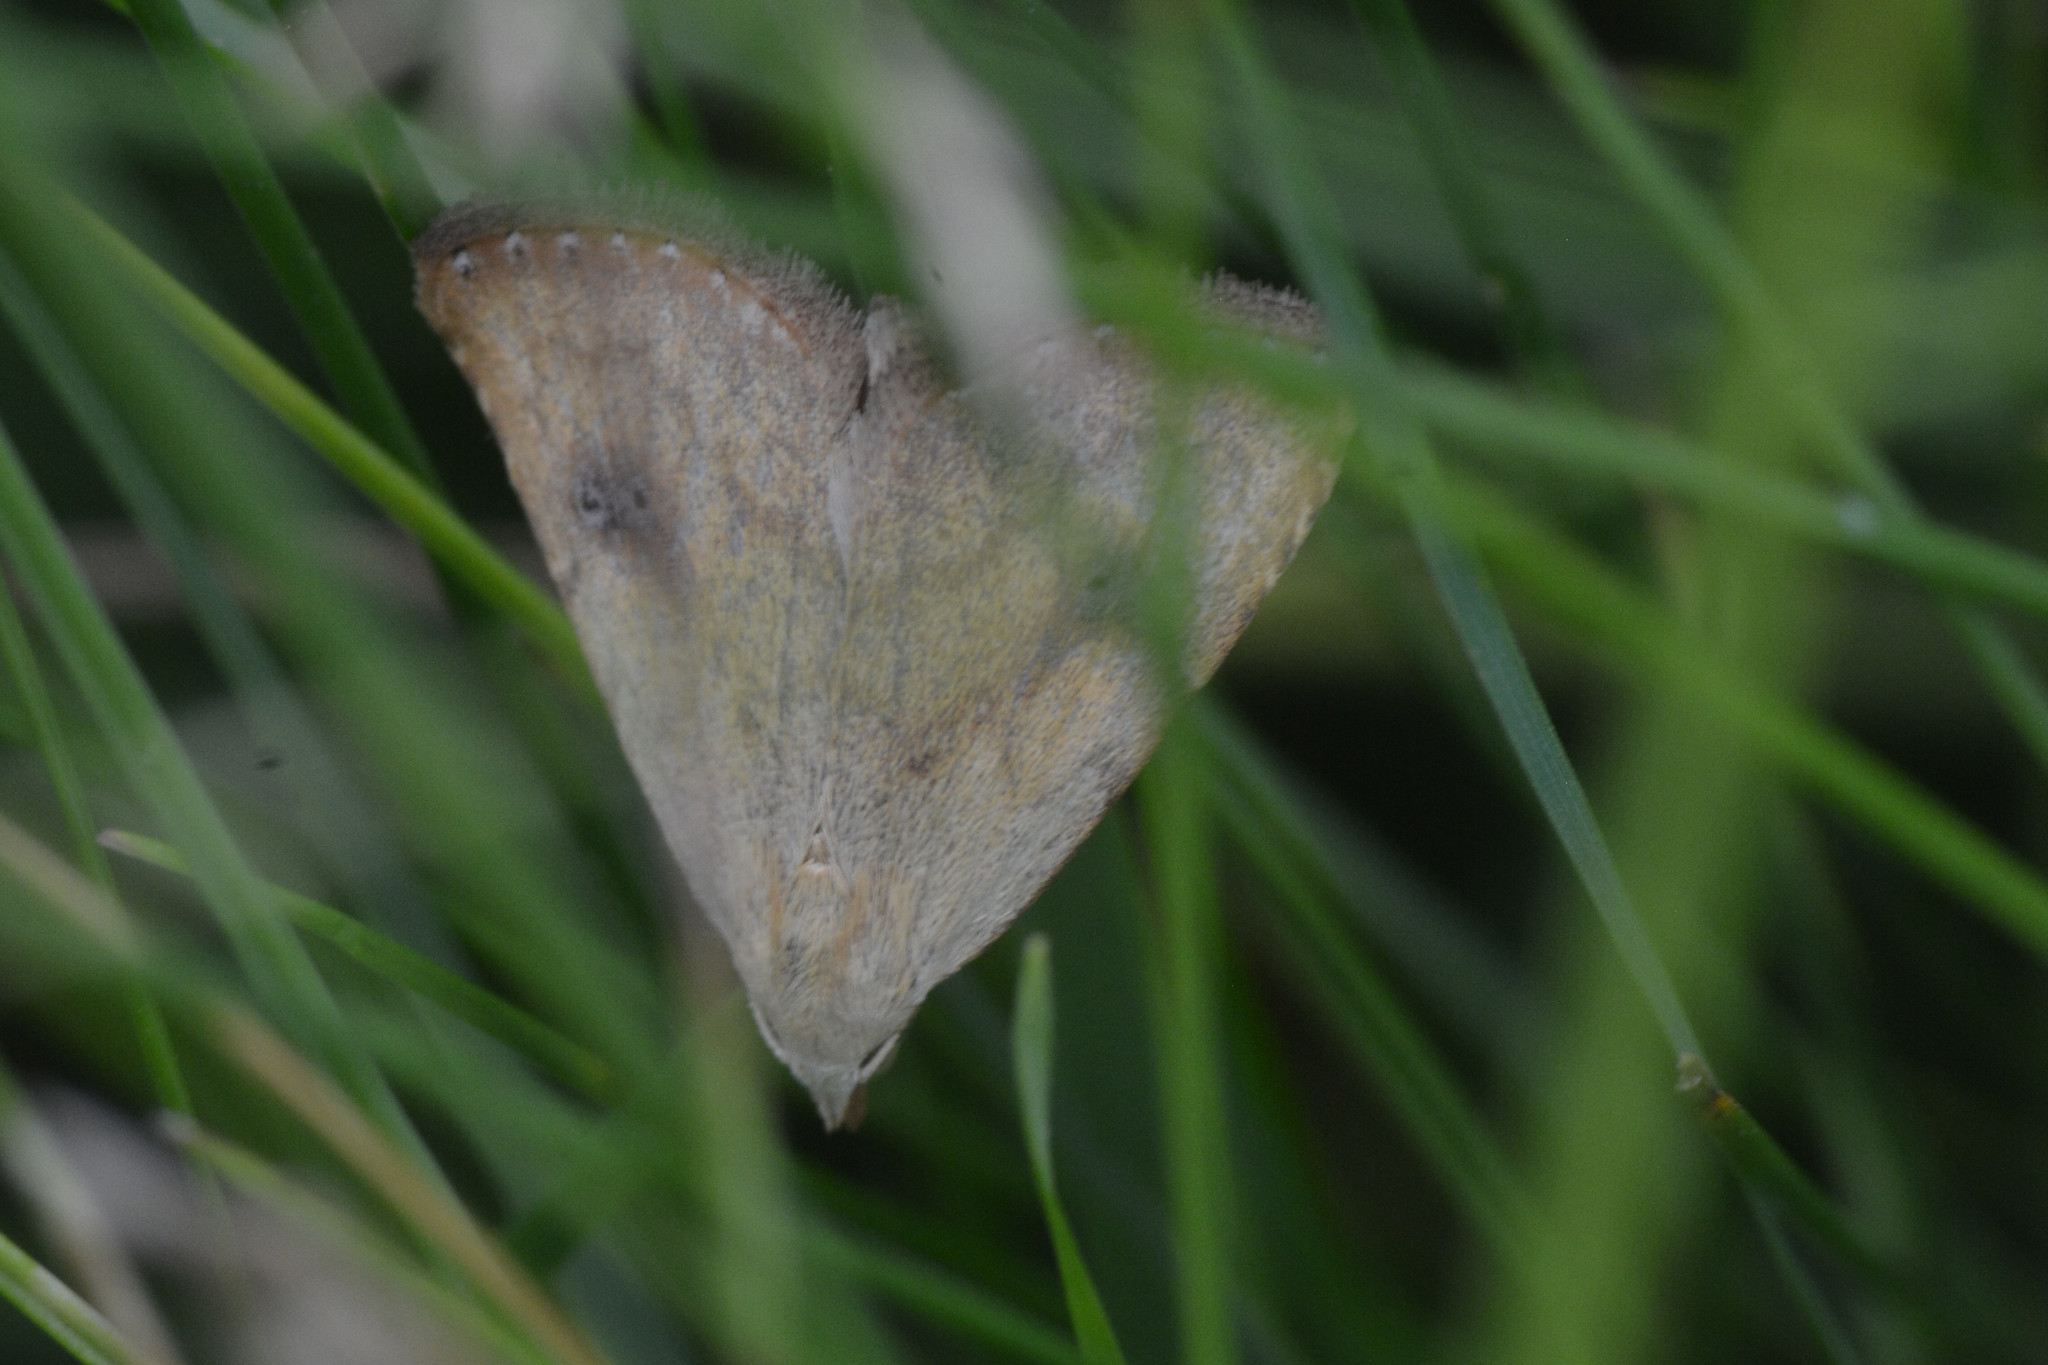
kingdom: Animalia
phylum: Arthropoda
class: Insecta
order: Lepidoptera
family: Erebidae
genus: Rivula
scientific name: Rivula sericealis
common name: Straw dot
